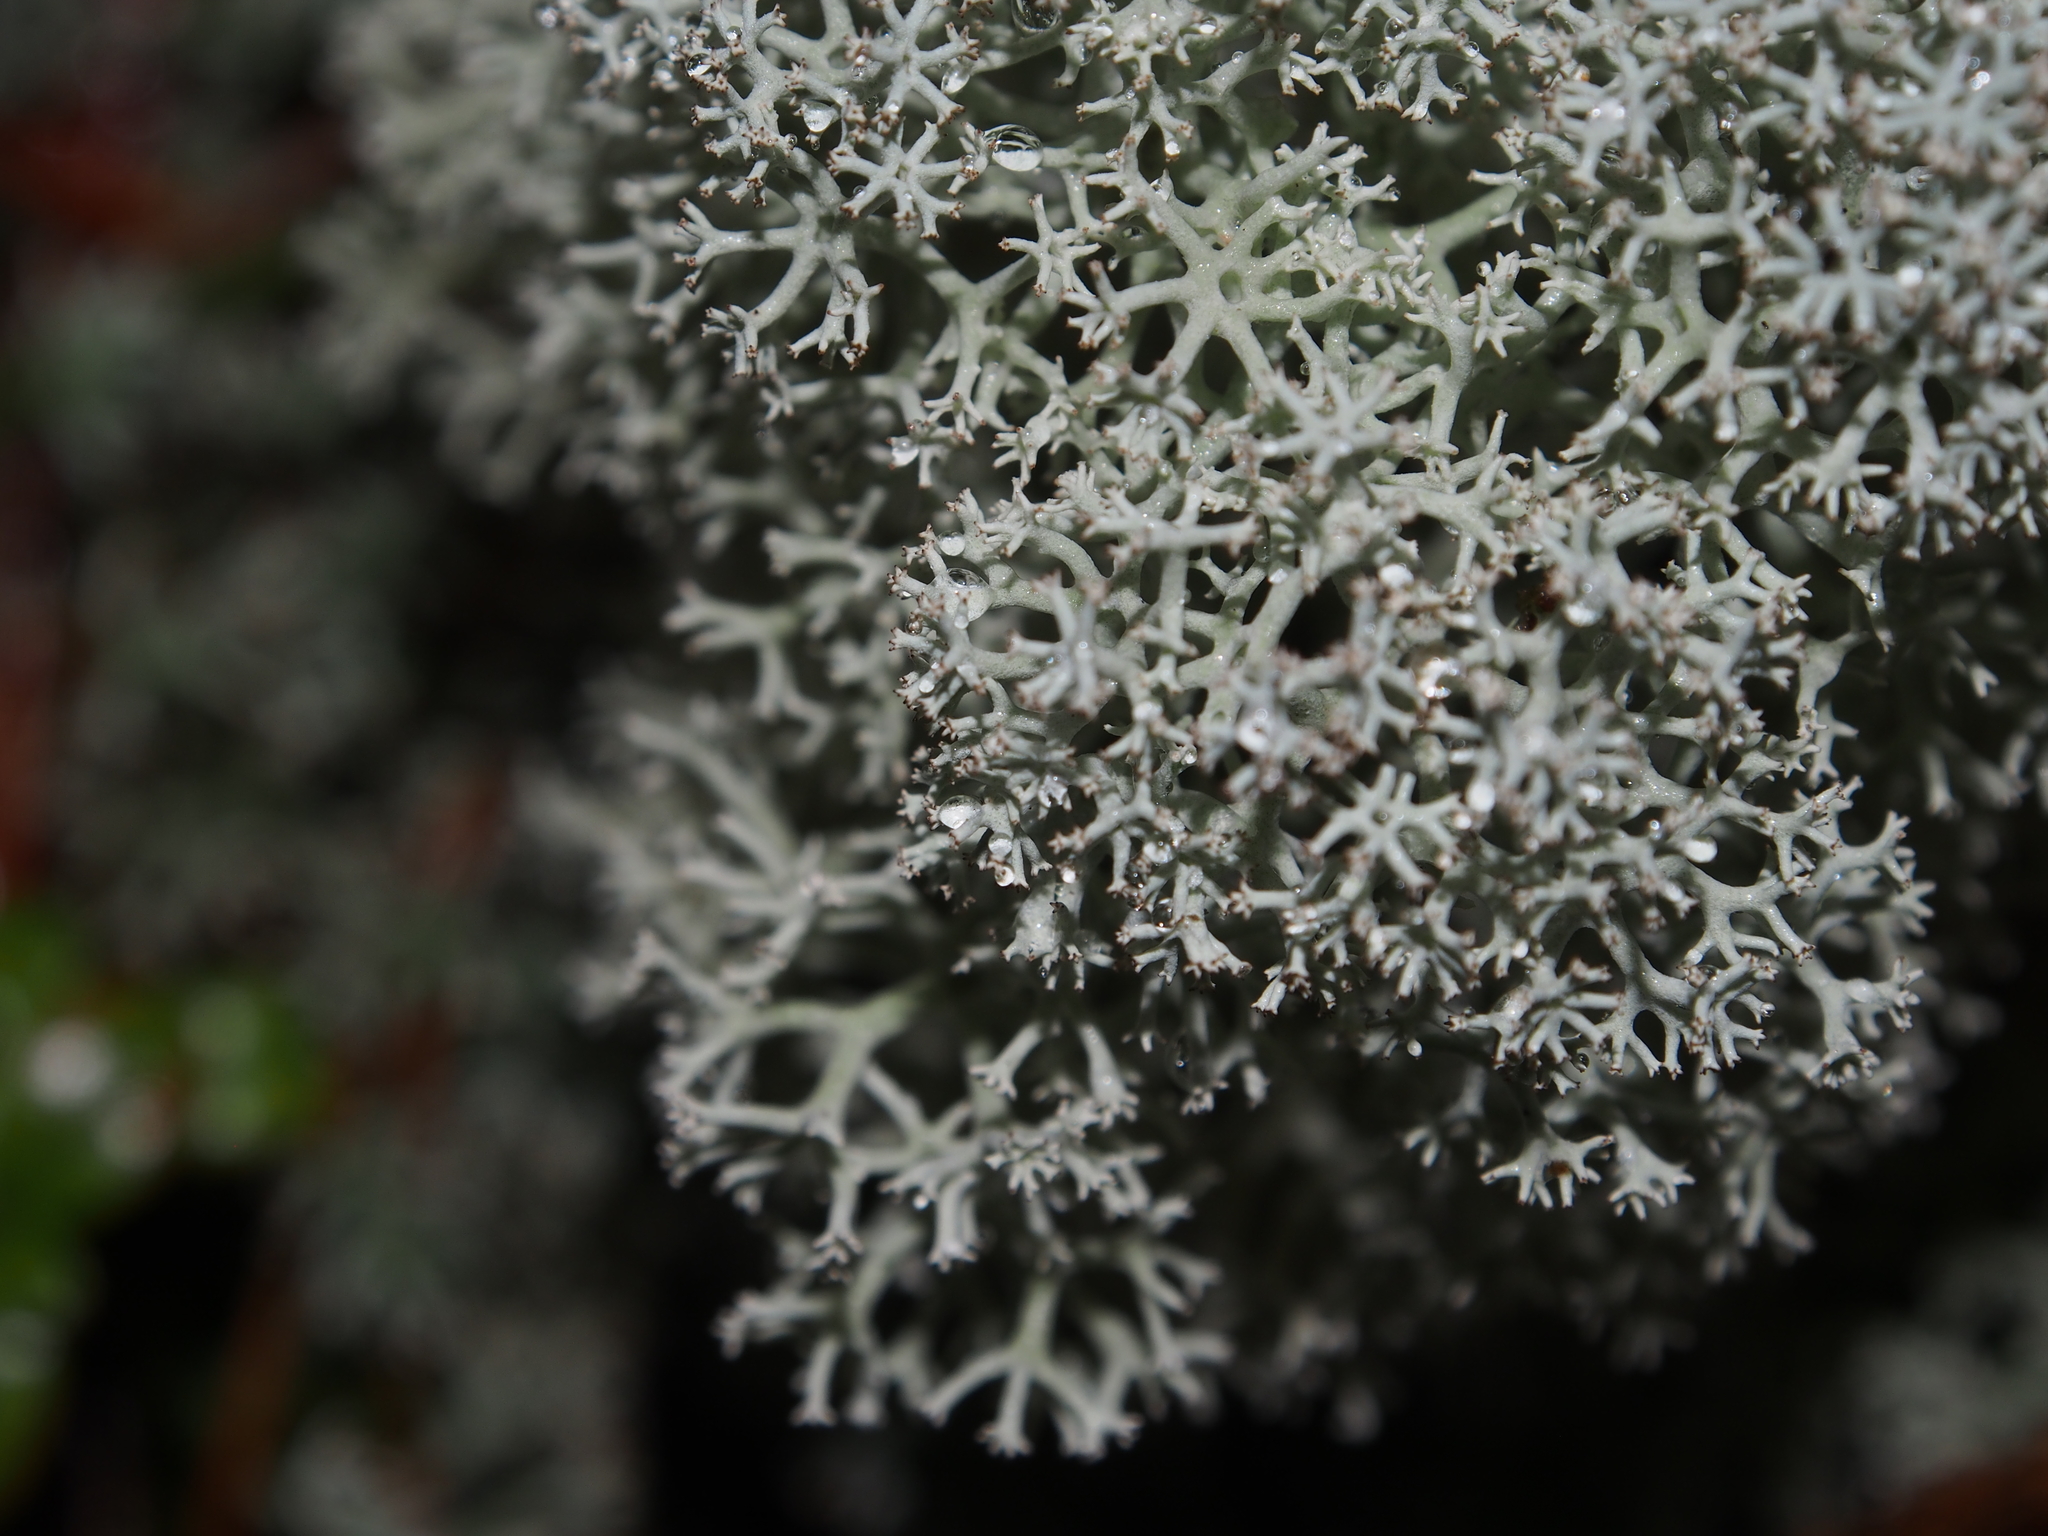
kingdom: Fungi
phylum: Ascomycota
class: Lecanoromycetes
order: Lecanorales
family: Cladoniaceae
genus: Cladonia
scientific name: Cladonia stellaris
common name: Star-tipped reindeer lichen
